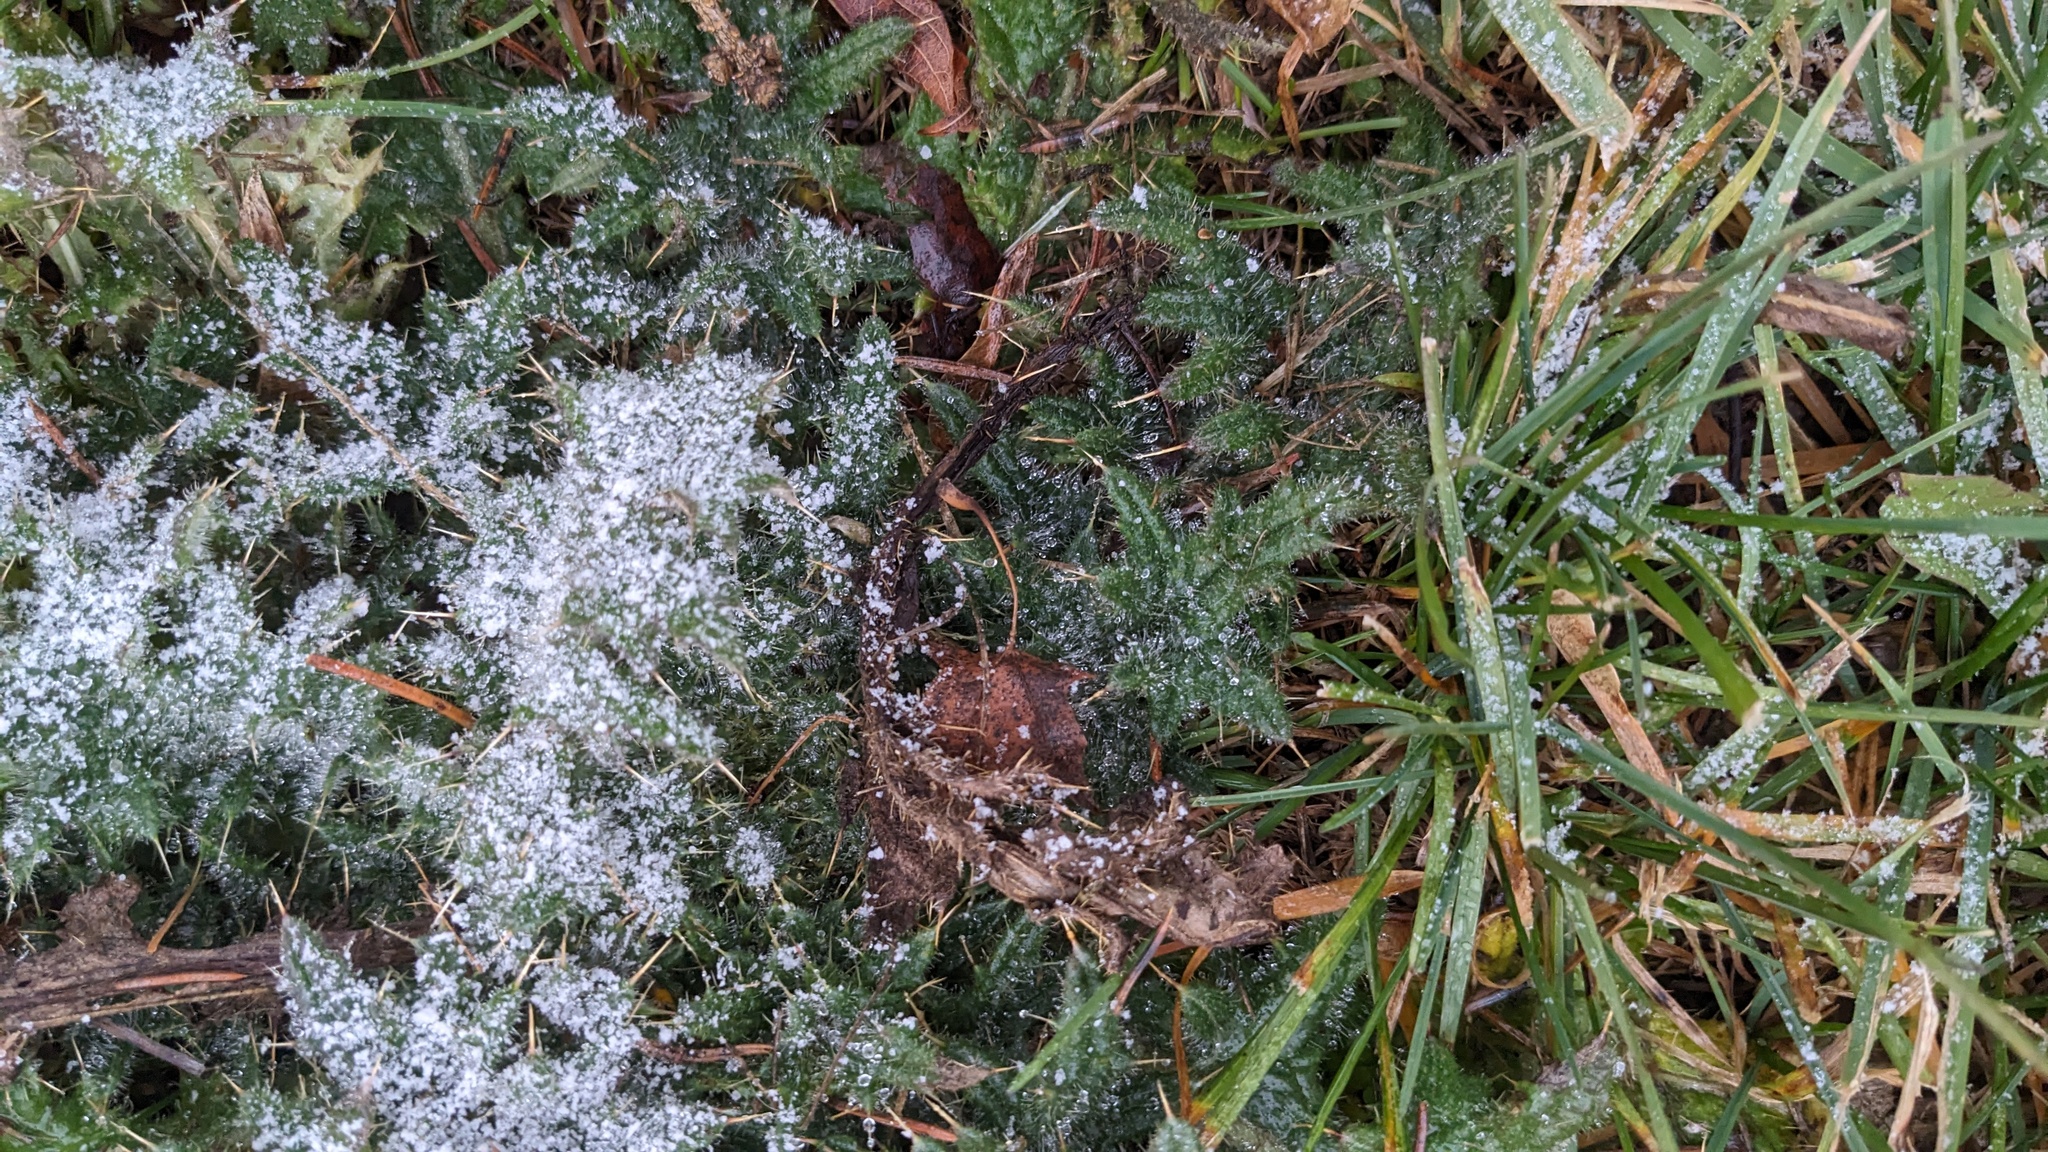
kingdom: Plantae
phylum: Tracheophyta
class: Magnoliopsida
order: Asterales
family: Asteraceae
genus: Cirsium
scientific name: Cirsium vulgare
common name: Bull thistle
